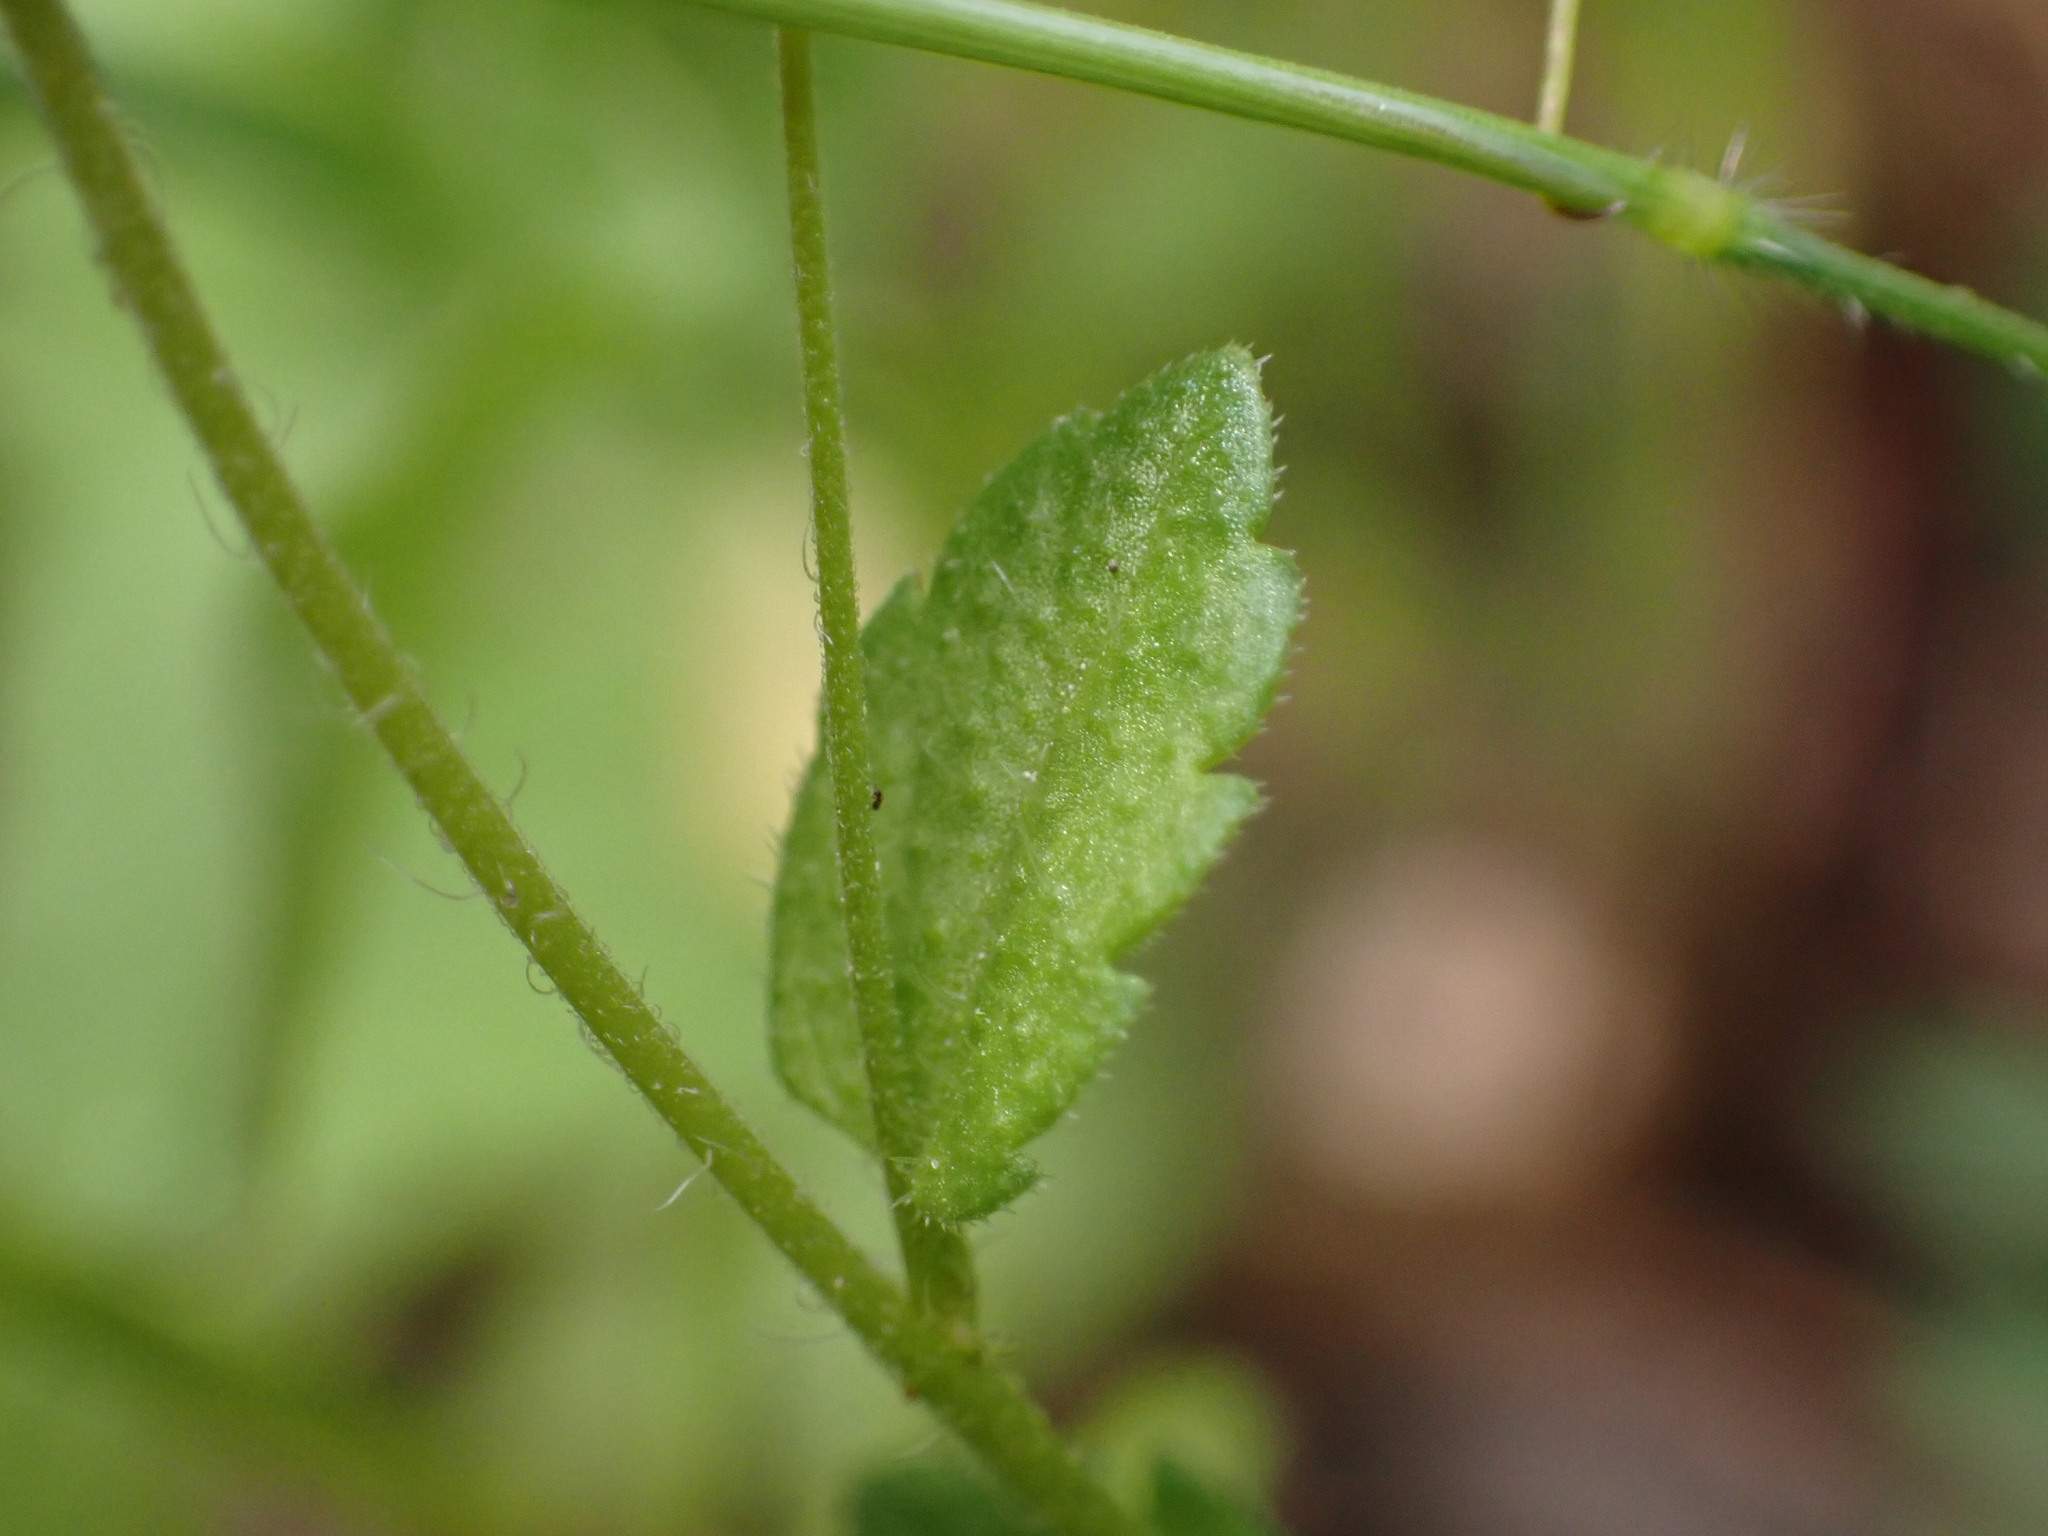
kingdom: Plantae
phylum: Tracheophyta
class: Magnoliopsida
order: Lamiales
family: Plantaginaceae
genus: Veronica
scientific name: Veronica persica
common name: Common field-speedwell
